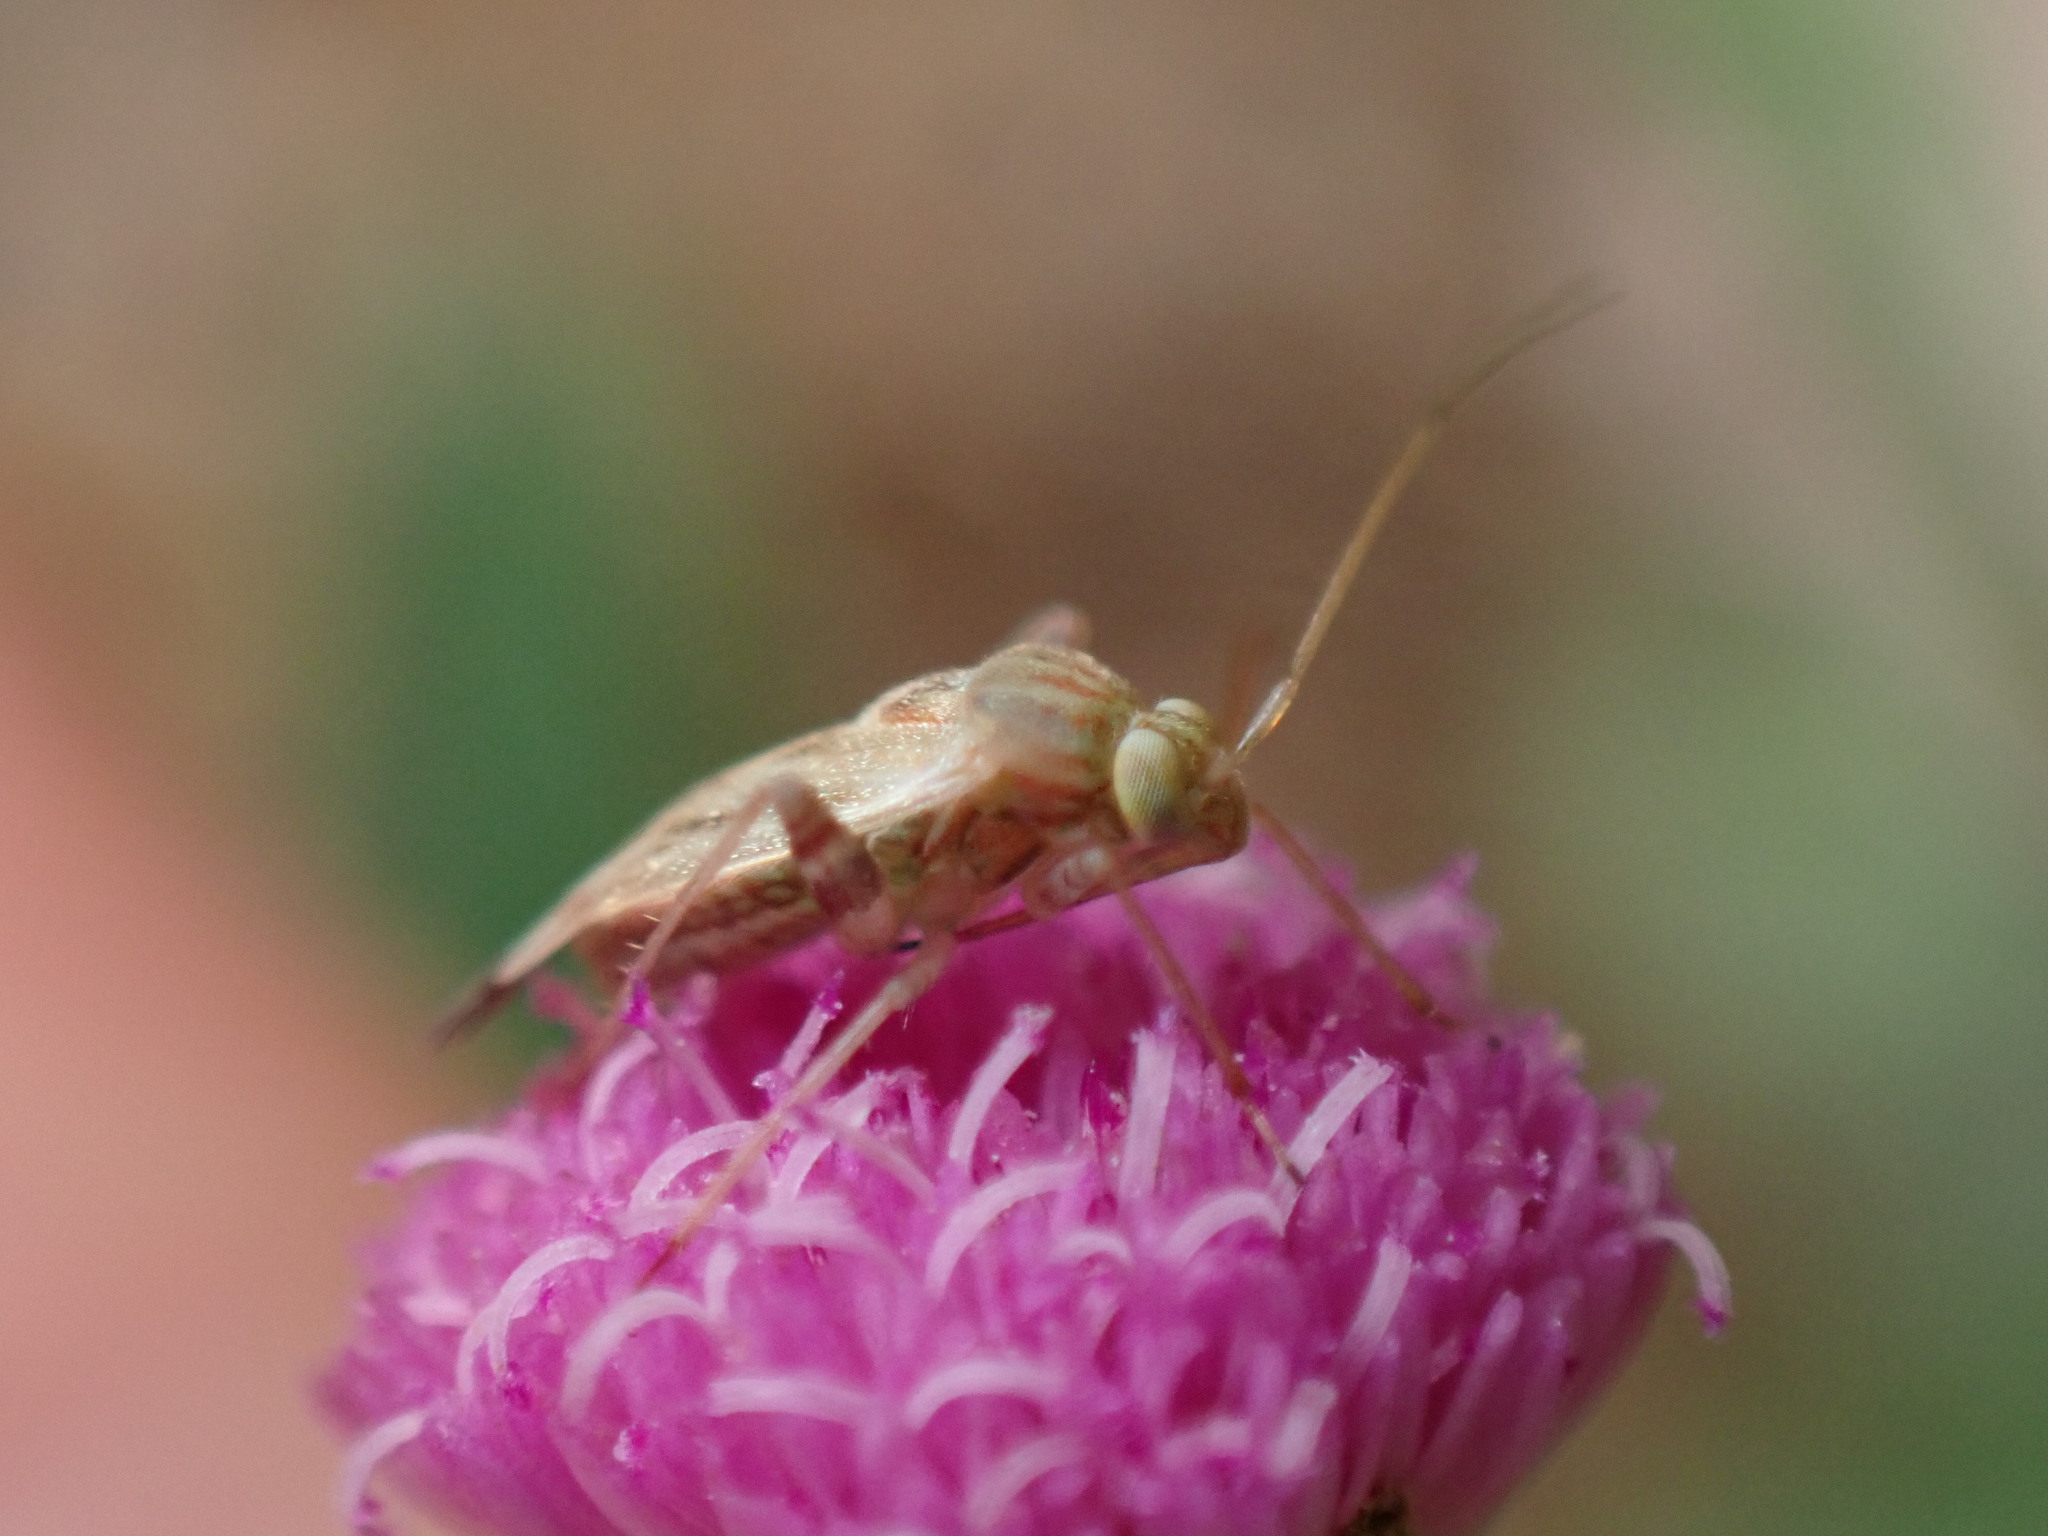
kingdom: Animalia
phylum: Arthropoda
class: Insecta
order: Hemiptera
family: Miridae
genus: Taylorilygus
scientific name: Taylorilygus apicalis
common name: Plant bug
